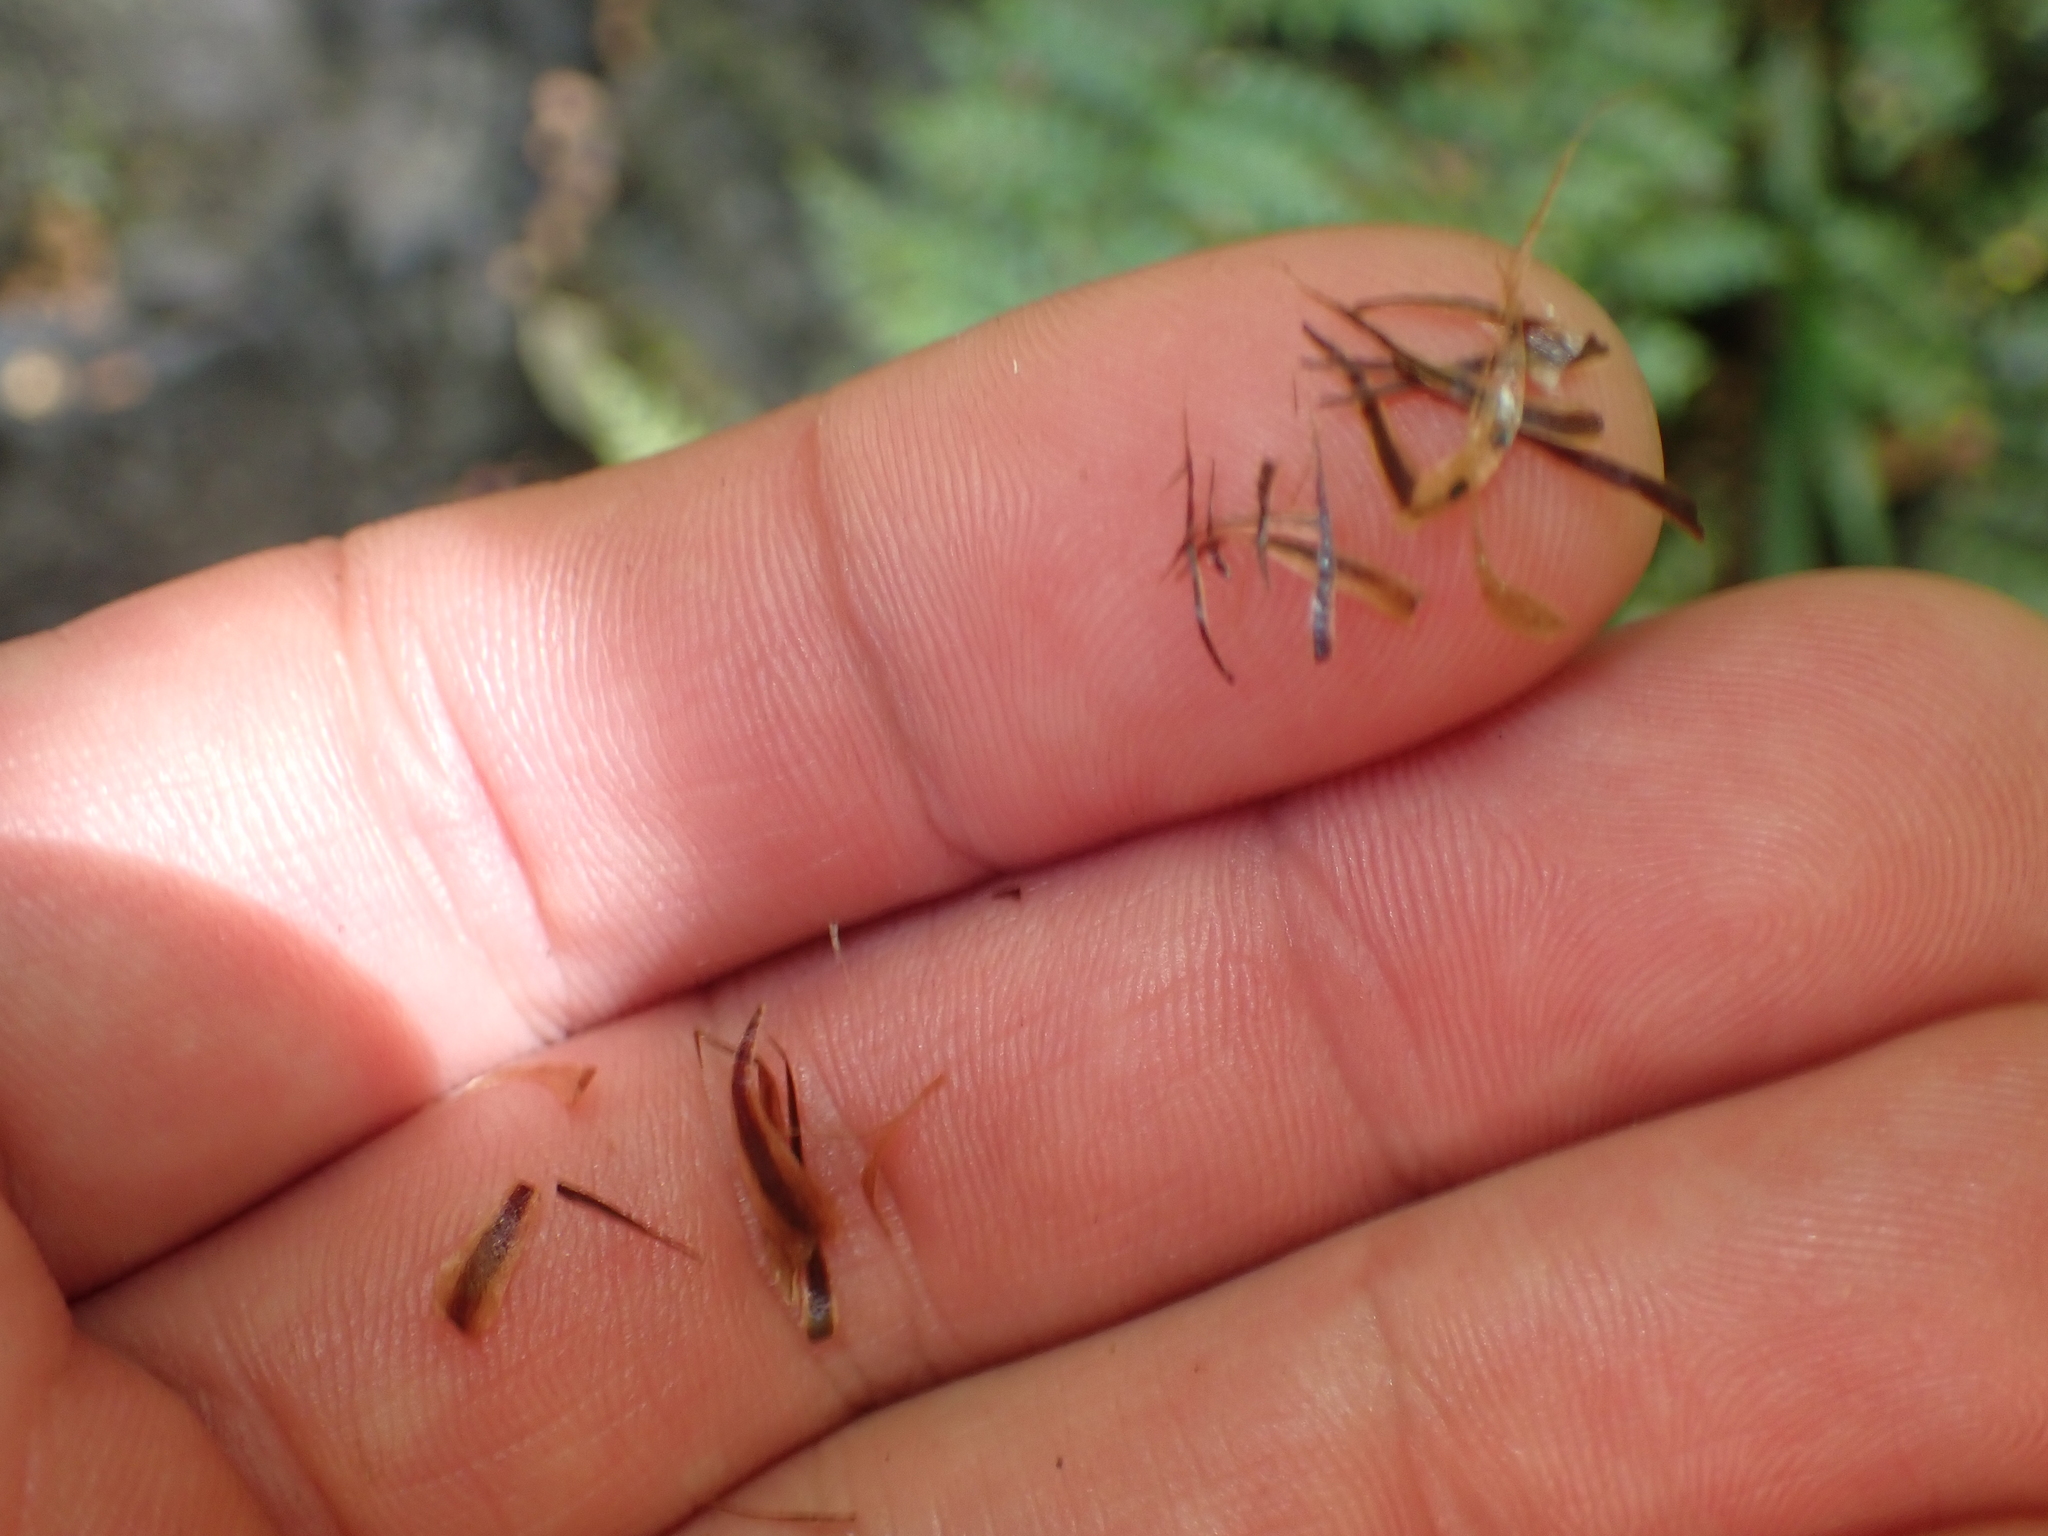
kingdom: Plantae
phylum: Tracheophyta
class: Polypodiopsida
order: Polypodiales
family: Dryopteridaceae
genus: Polystichum
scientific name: Polystichum vestitum
